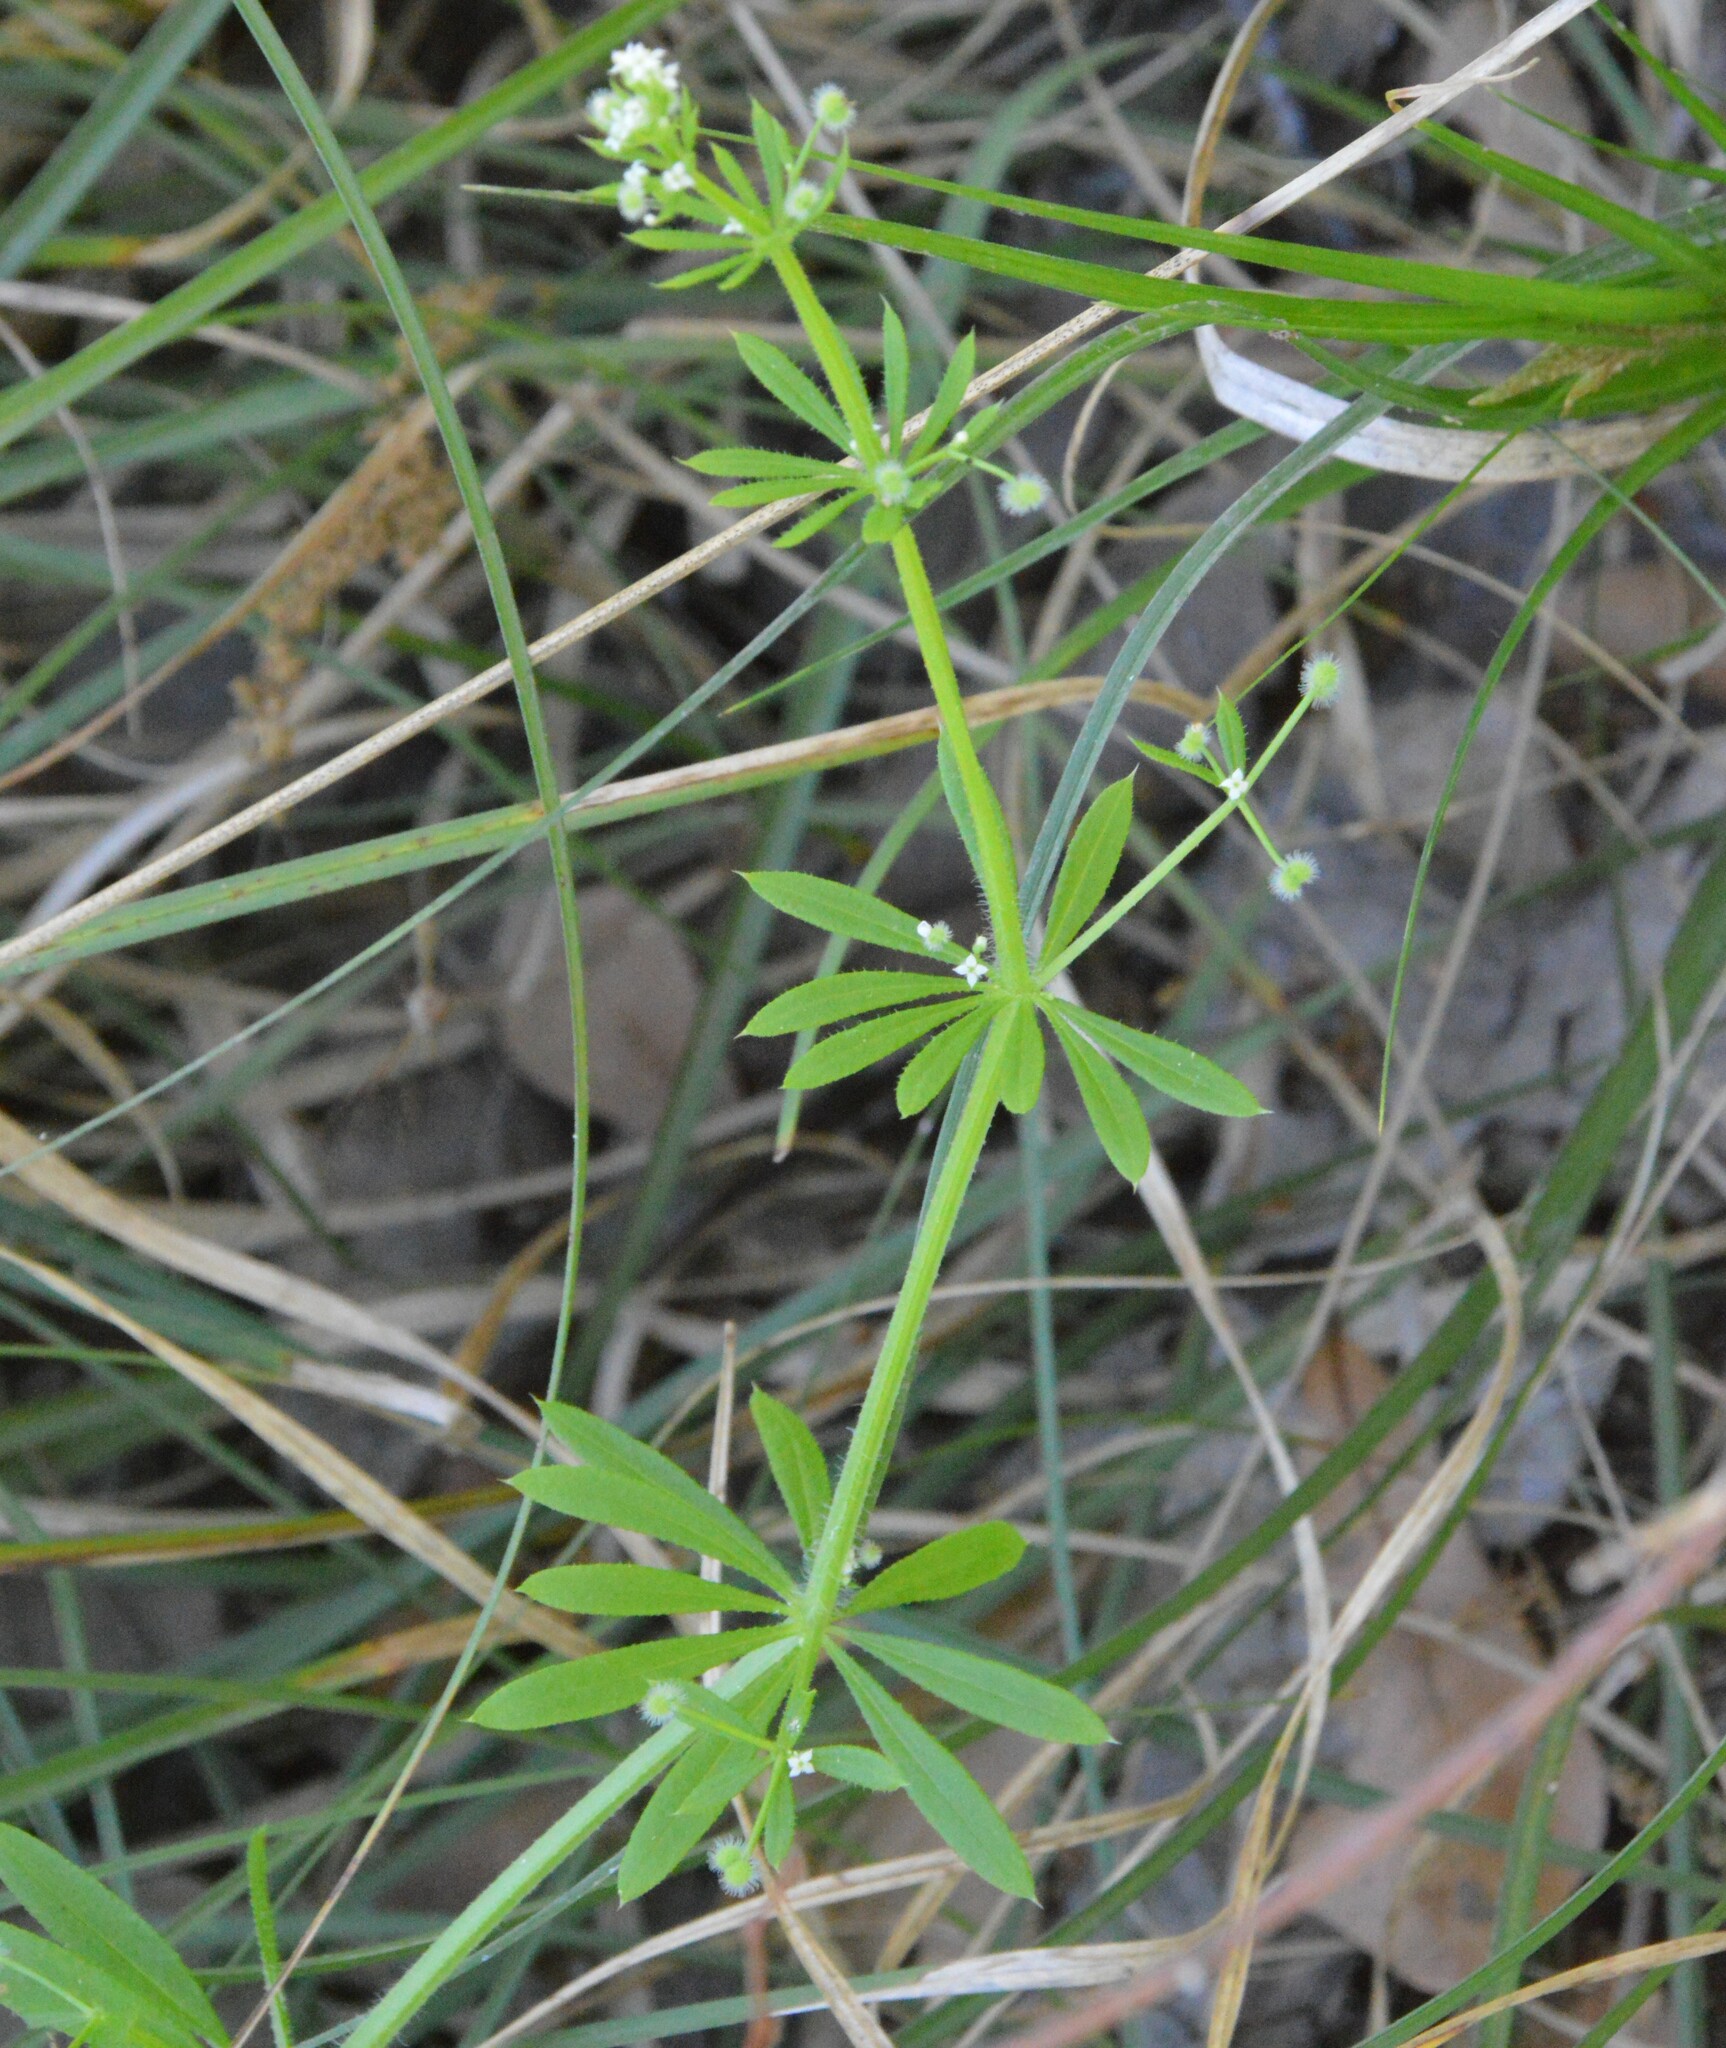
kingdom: Plantae
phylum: Tracheophyta
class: Magnoliopsida
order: Gentianales
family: Rubiaceae
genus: Galium
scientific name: Galium aparine
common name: Cleavers
